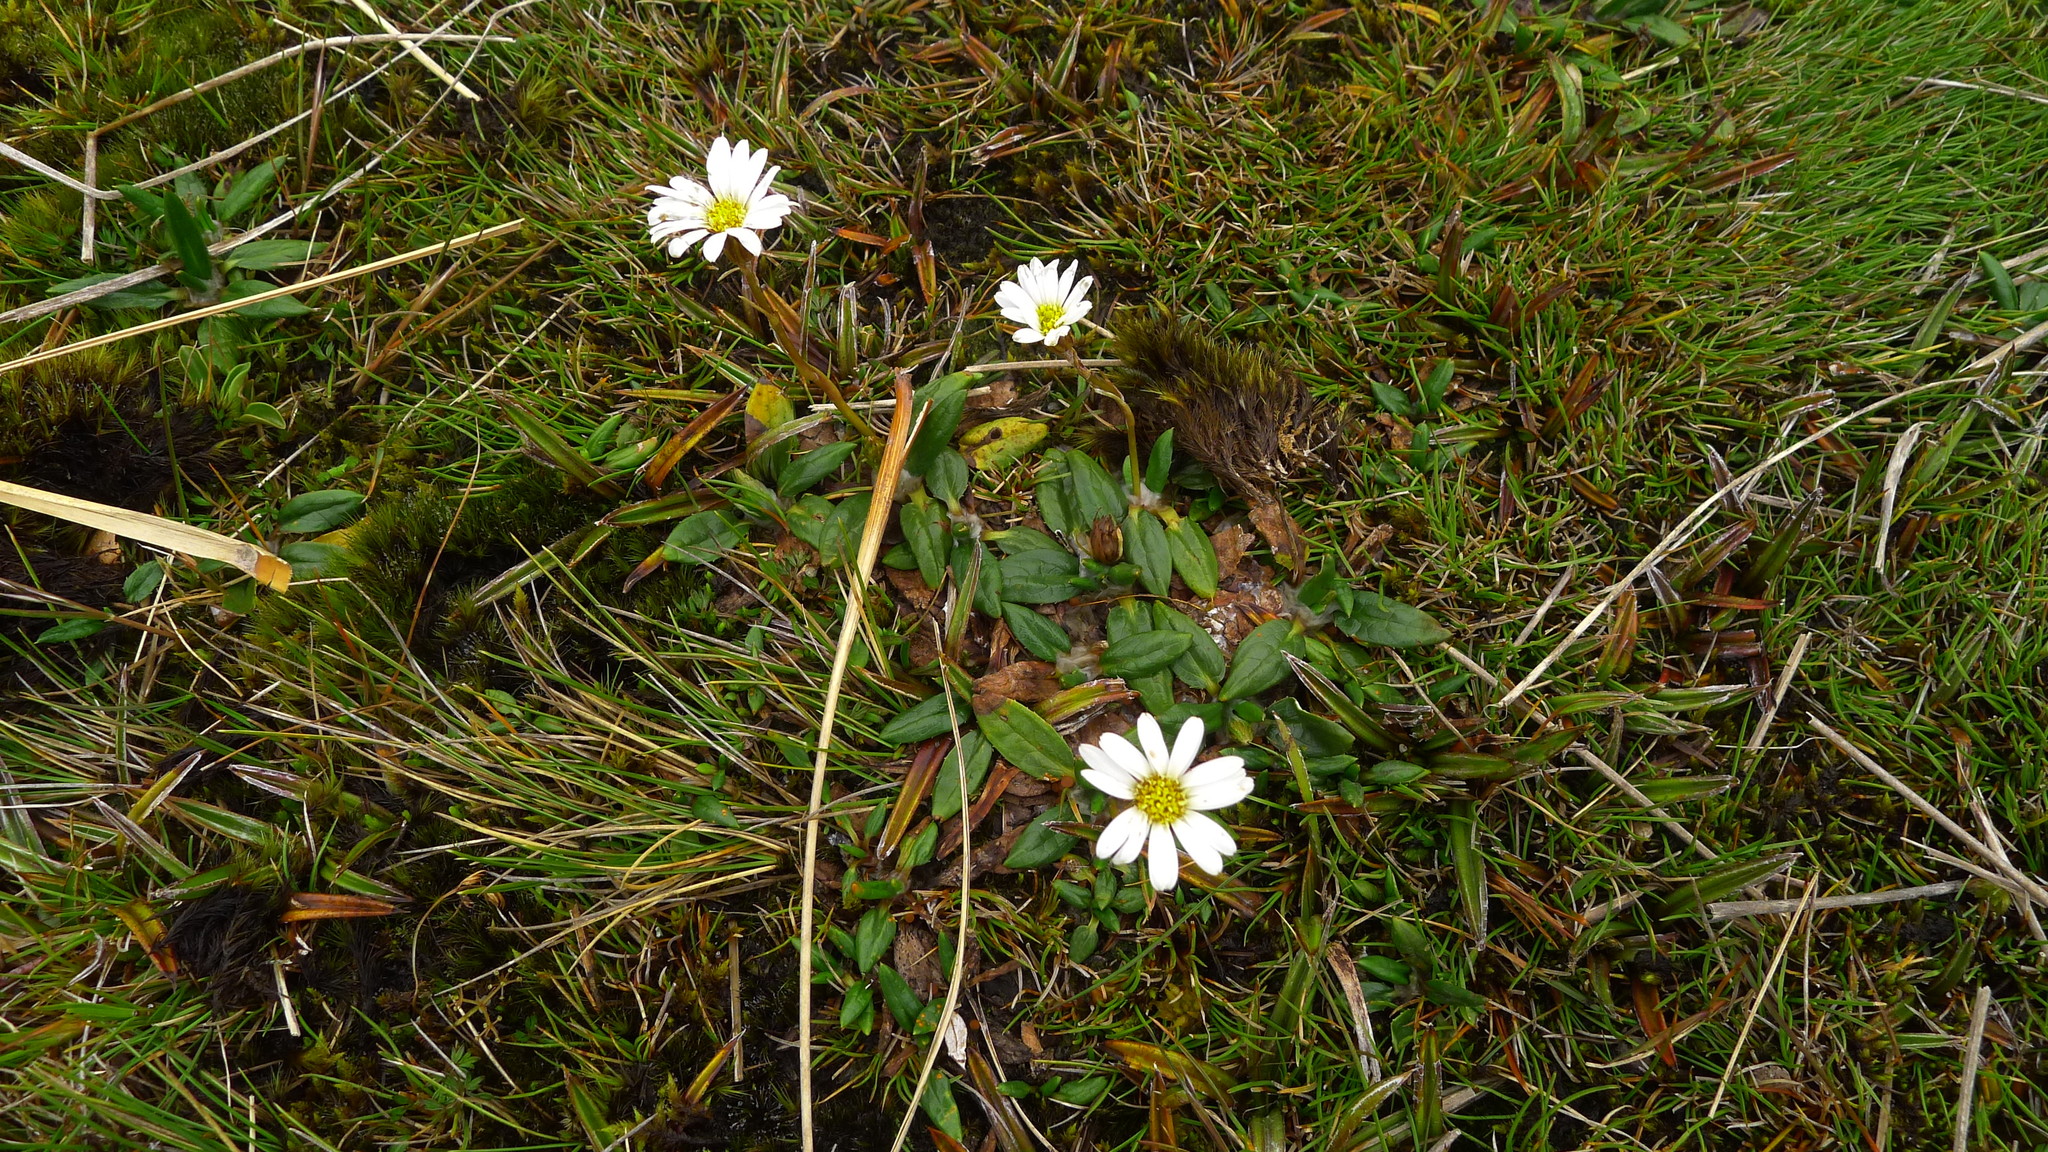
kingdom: Plantae
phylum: Tracheophyta
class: Magnoliopsida
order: Asterales
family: Asteraceae
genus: Celmisia
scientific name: Celmisia parva
